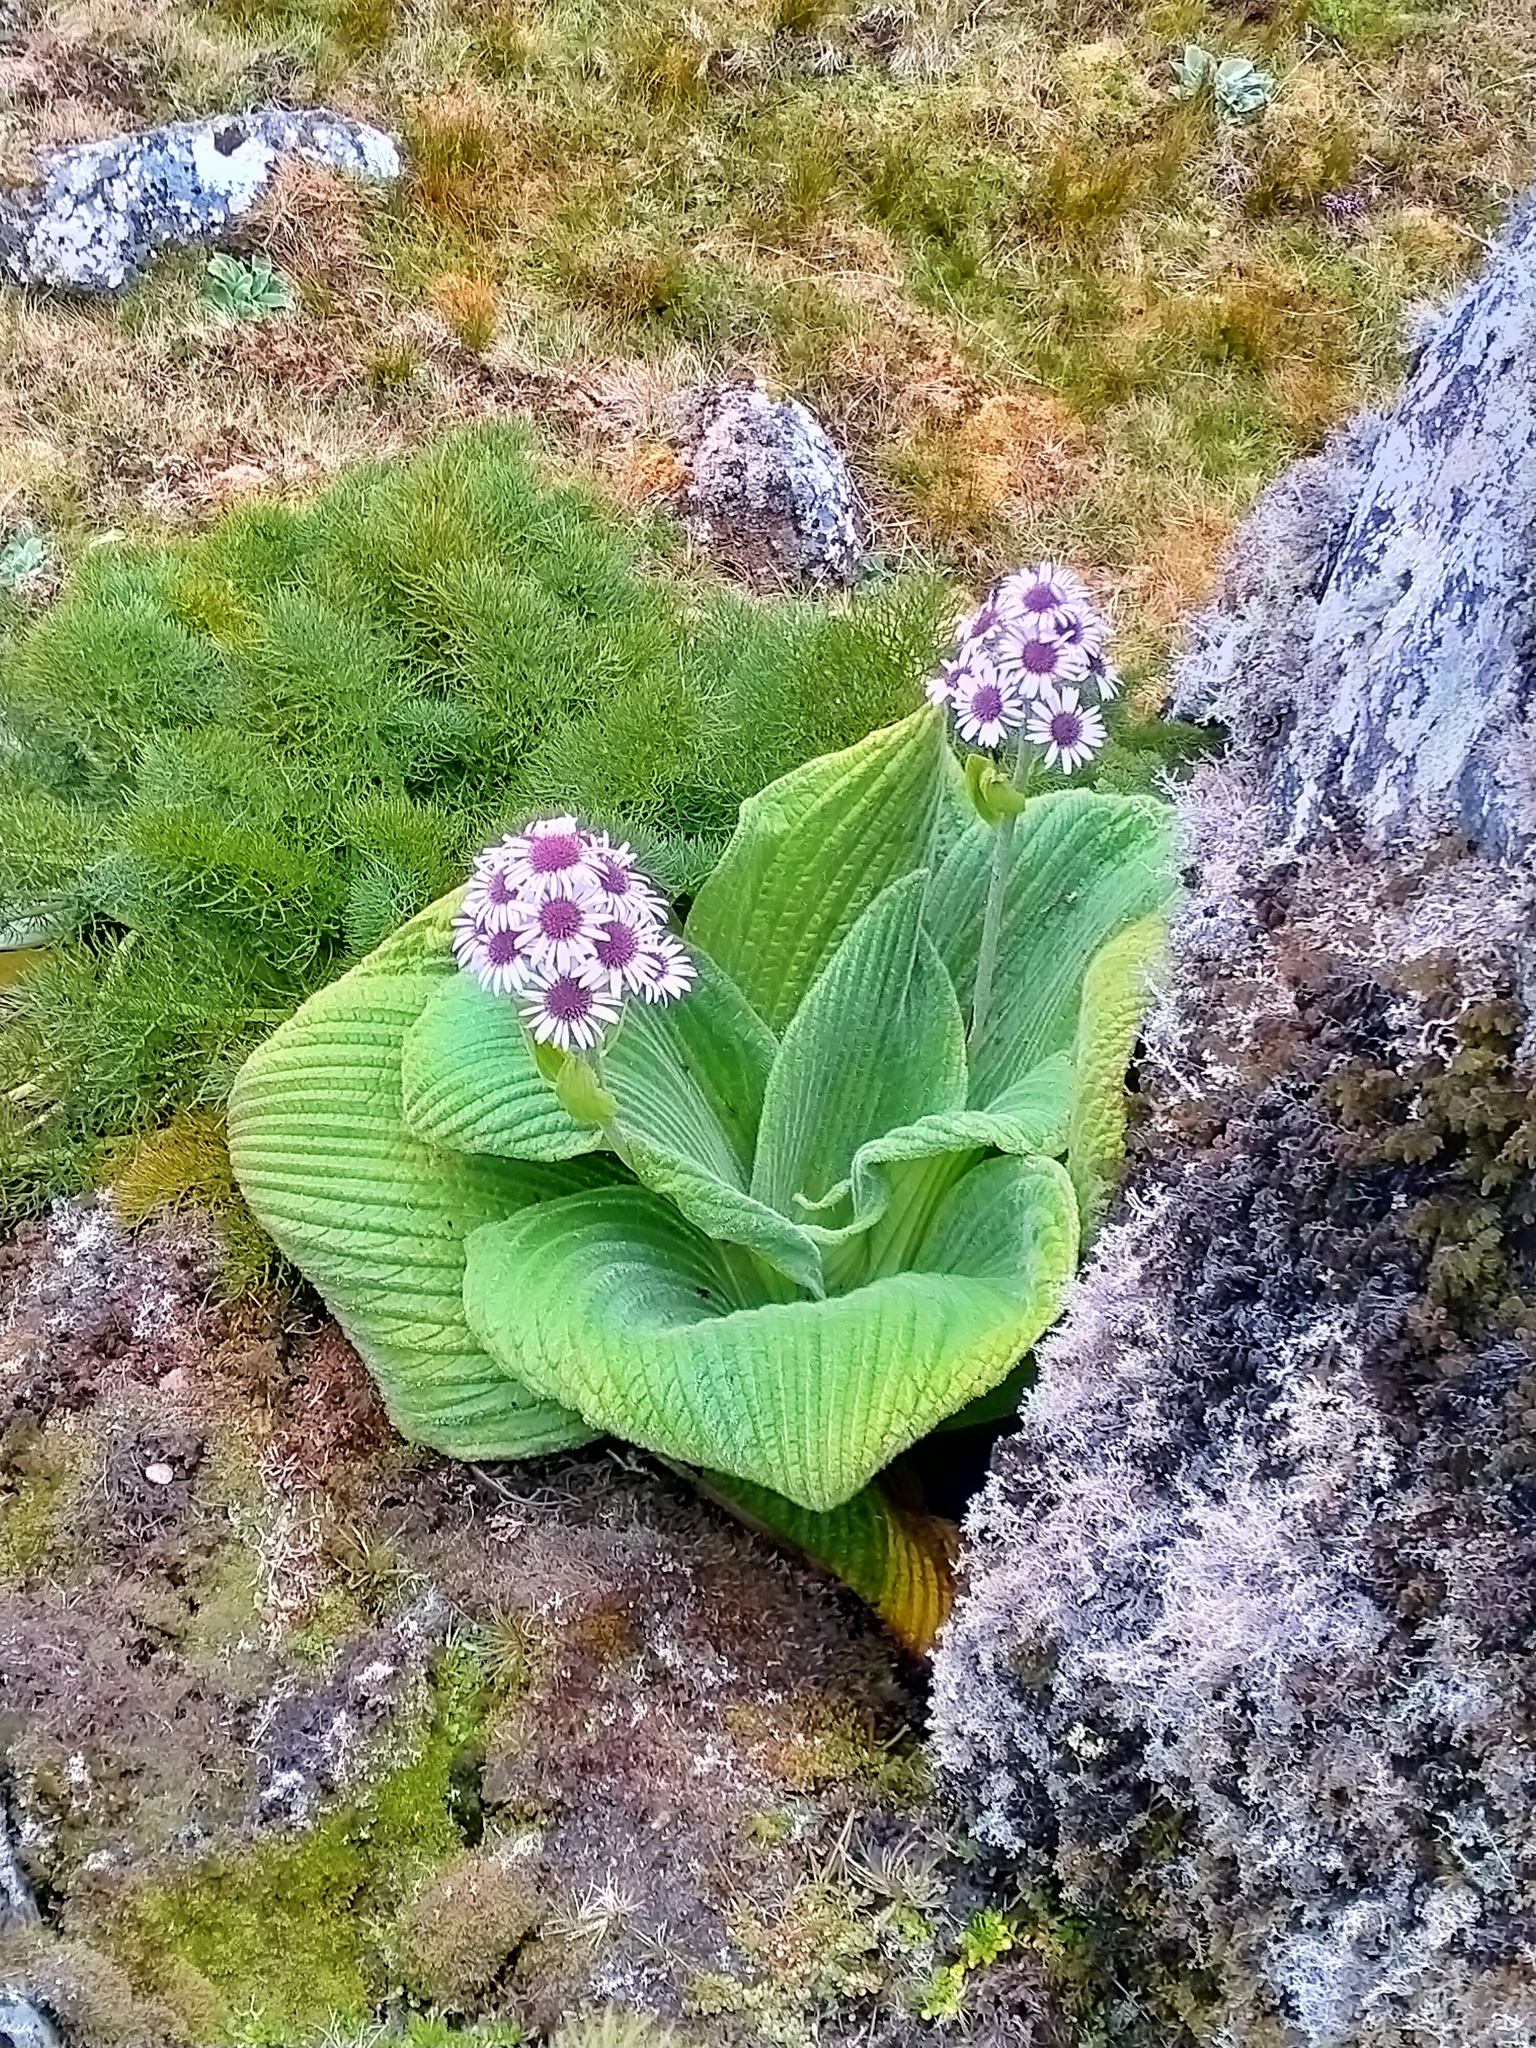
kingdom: Plantae
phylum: Tracheophyta
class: Magnoliopsida
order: Asterales
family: Asteraceae
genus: Pleurophyllum
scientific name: Pleurophyllum speciosum
